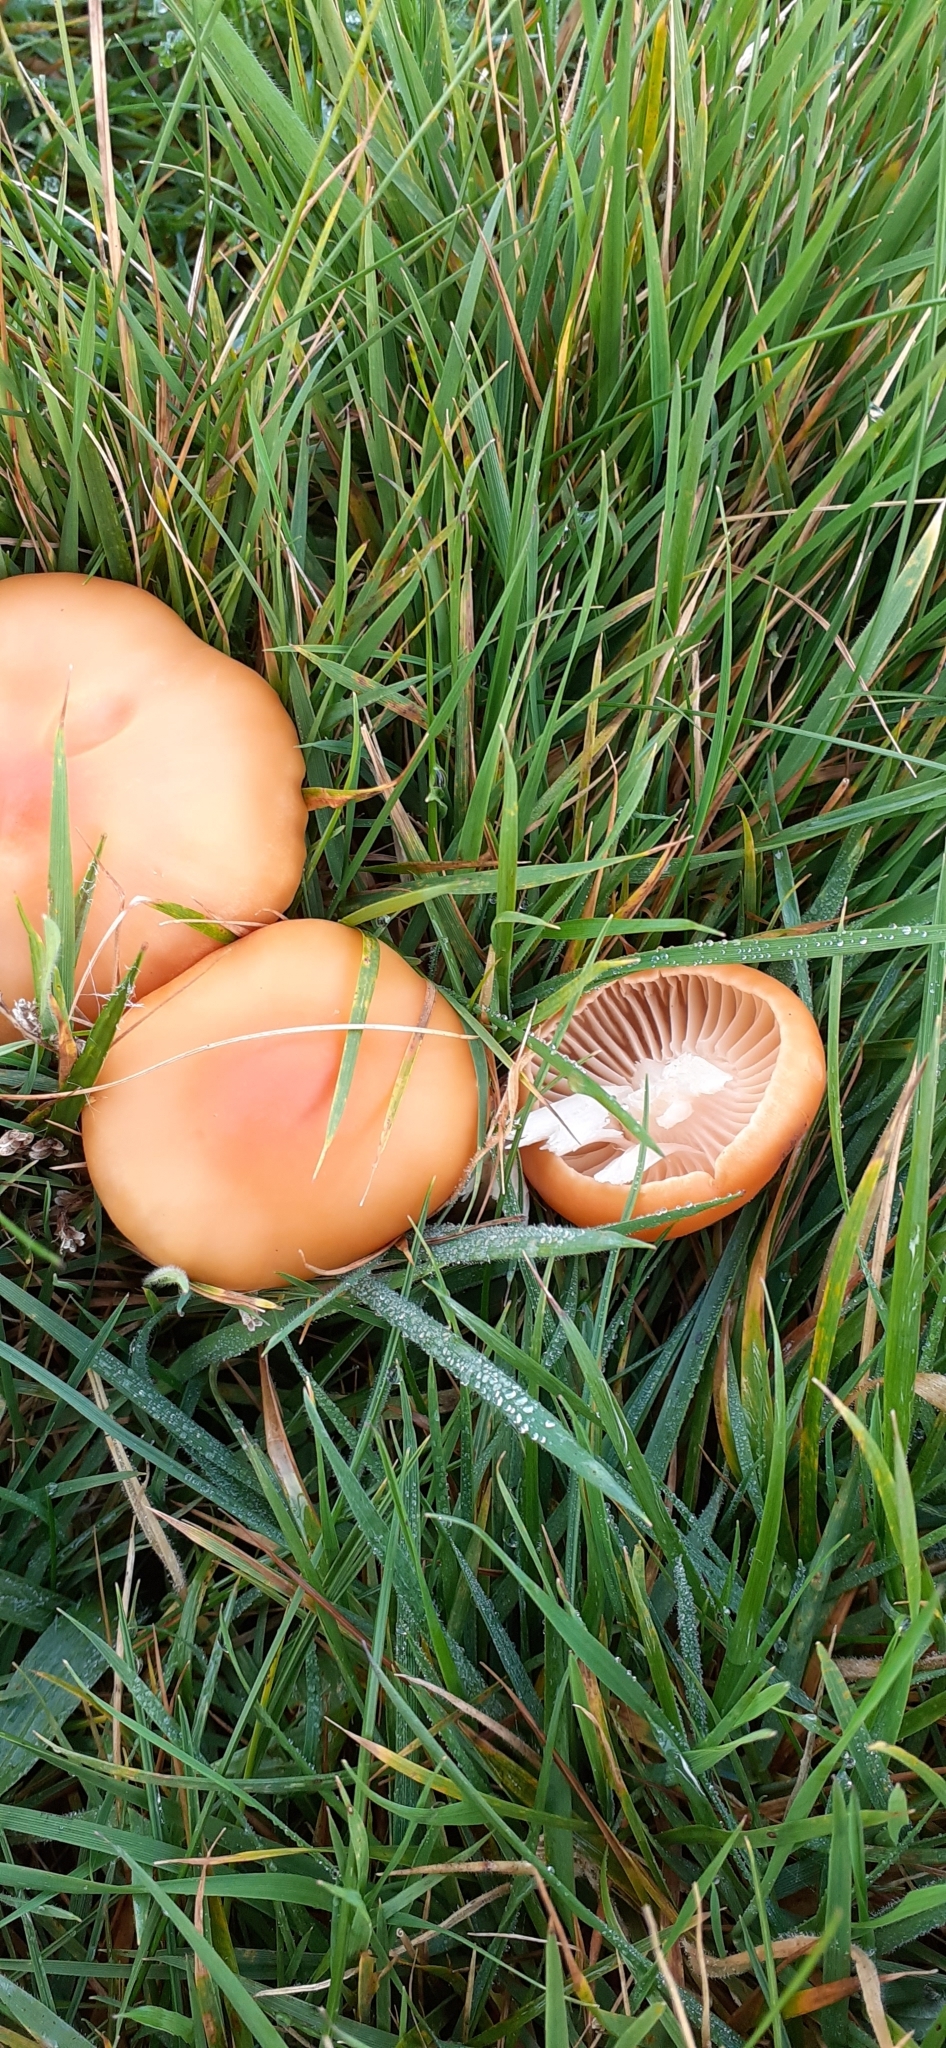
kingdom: Fungi
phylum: Basidiomycota
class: Agaricomycetes
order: Agaricales
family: Hygrophoraceae
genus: Cuphophyllus
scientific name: Cuphophyllus pratensis
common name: Meadow waxcap
